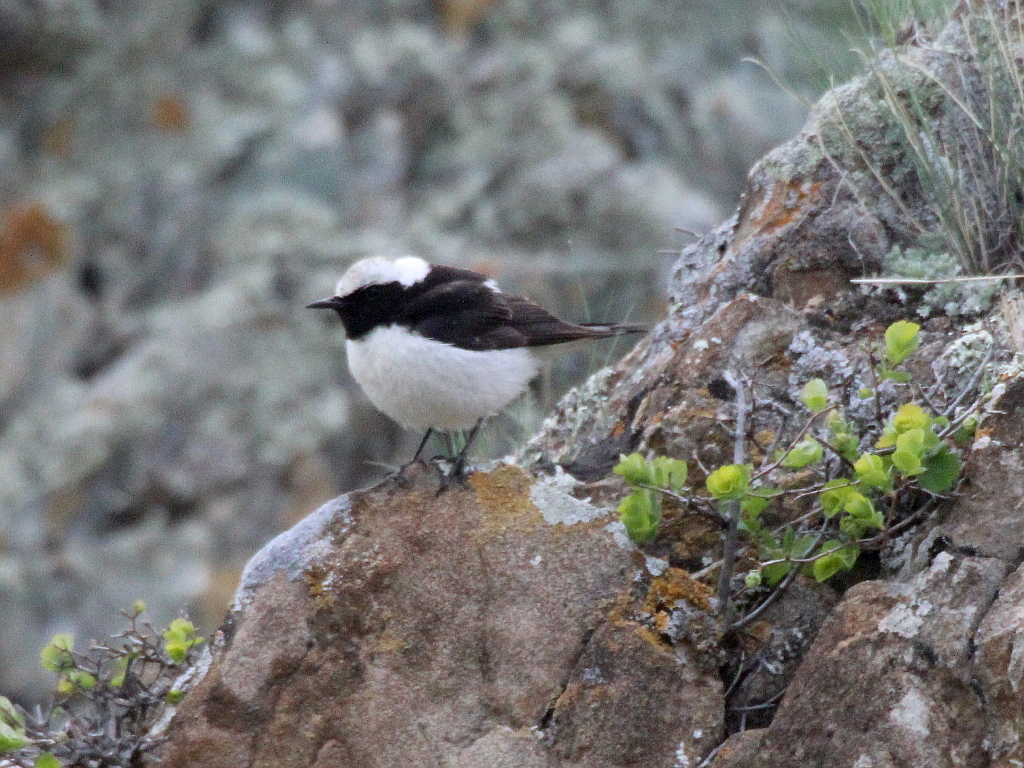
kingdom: Animalia
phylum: Chordata
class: Aves
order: Passeriformes
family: Muscicapidae
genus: Oenanthe
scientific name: Oenanthe pleschanka
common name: Pied wheatear
